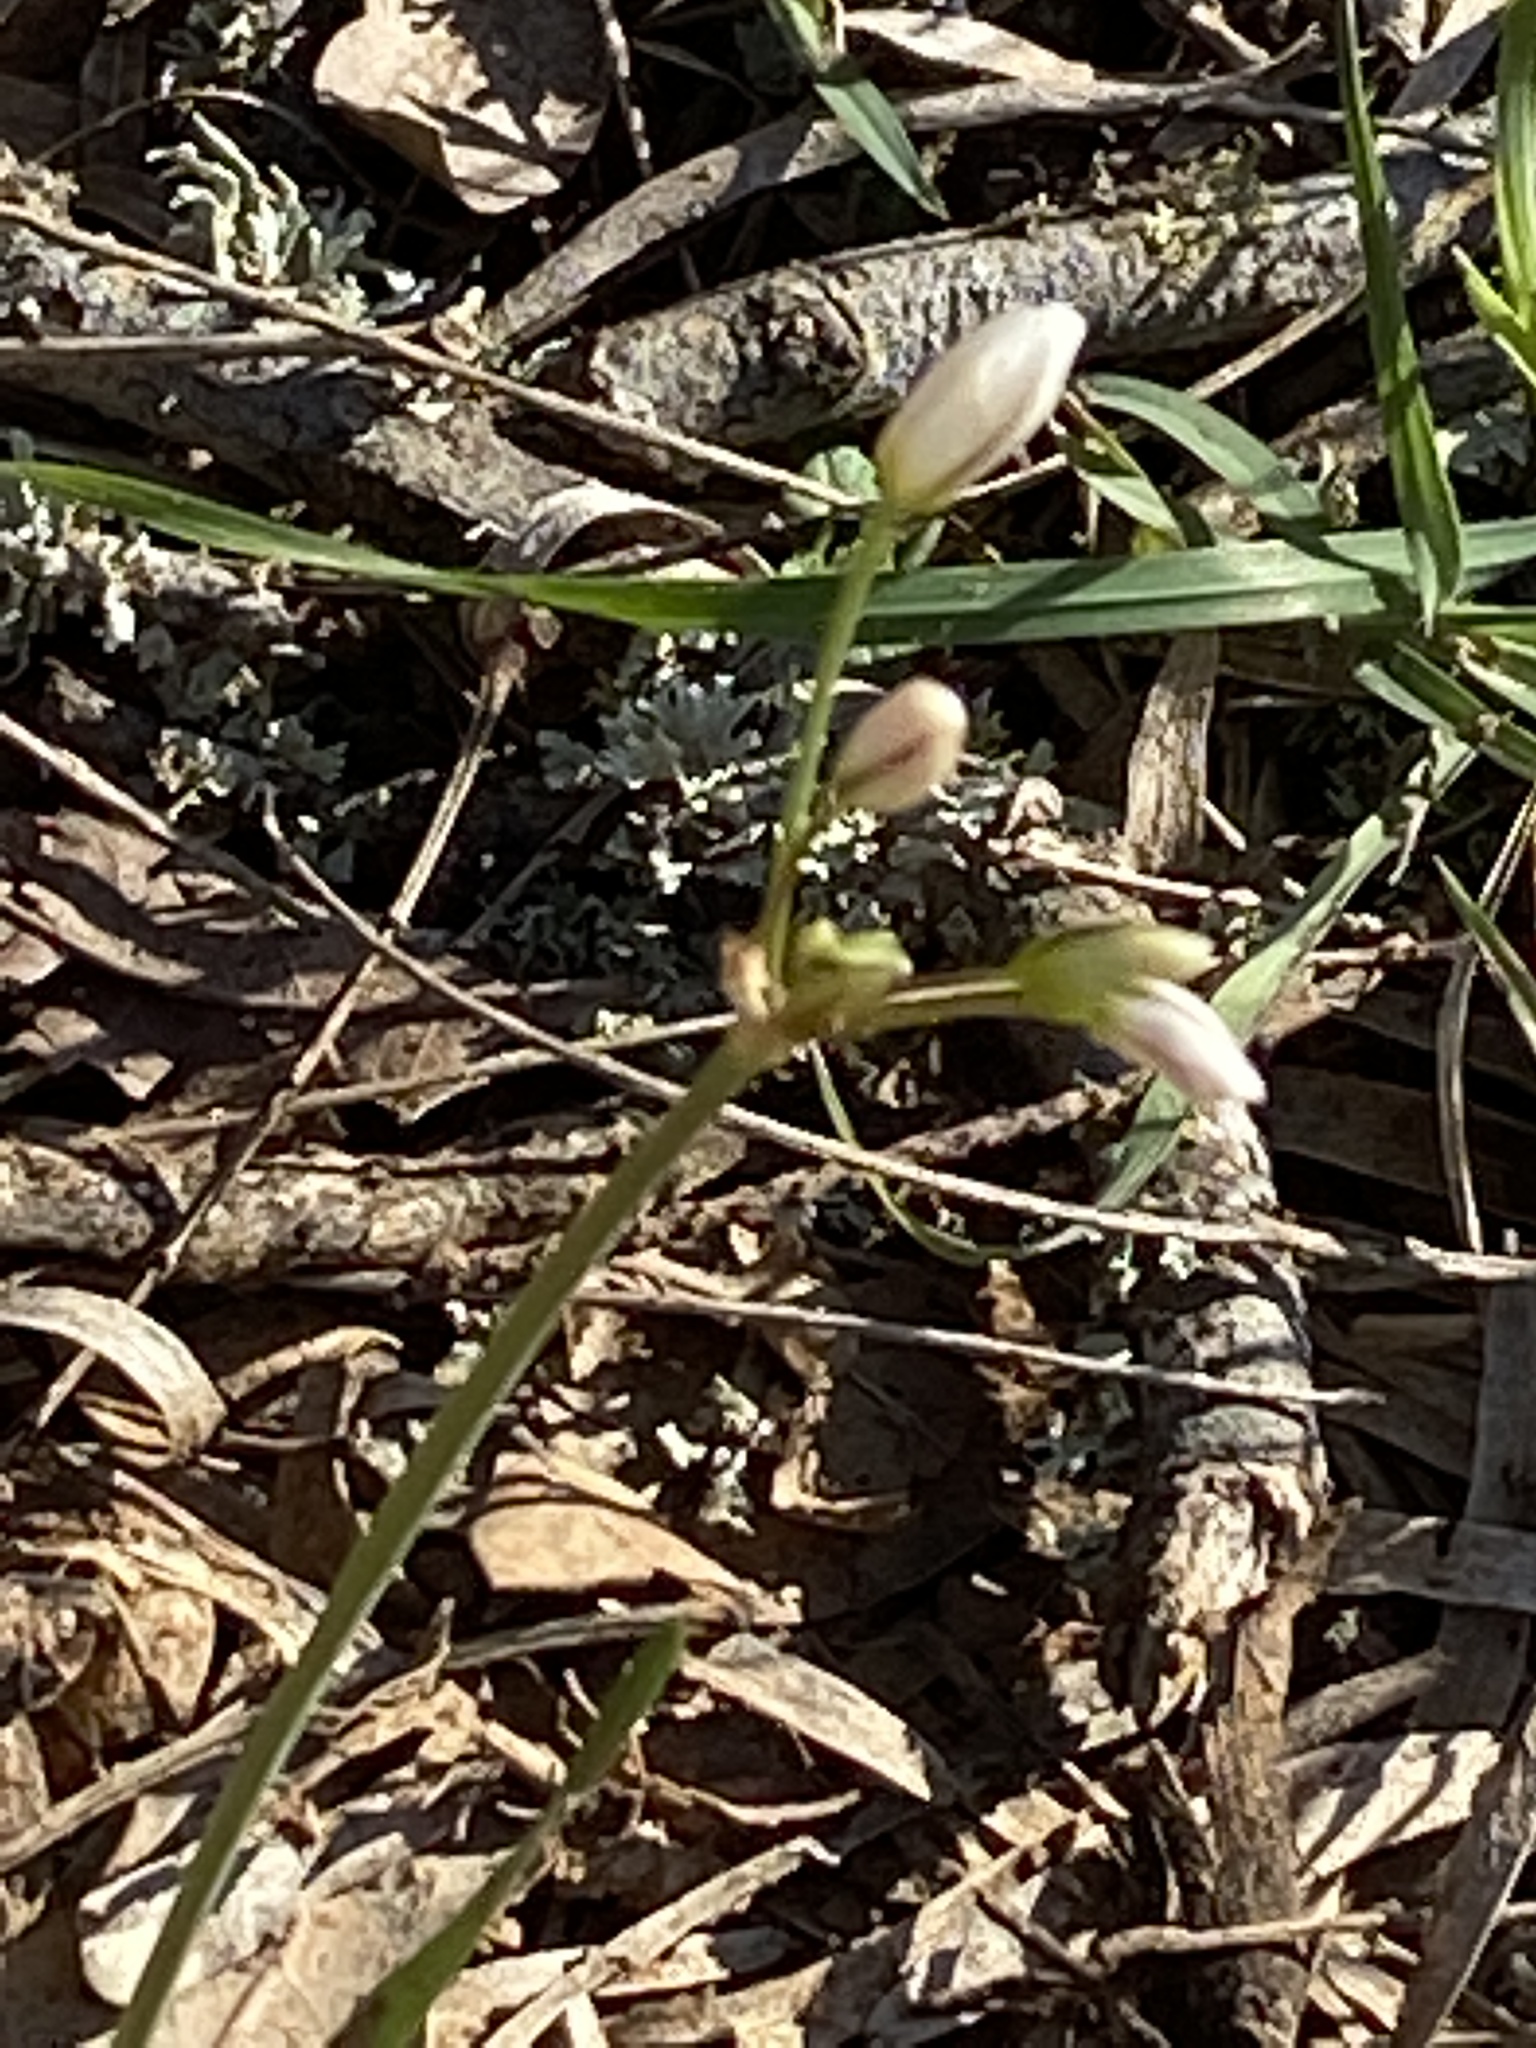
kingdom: Plantae
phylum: Tracheophyta
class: Liliopsida
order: Asparagales
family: Amaryllidaceae
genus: Nothoscordum
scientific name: Nothoscordum bivalve
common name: Crow-poison
